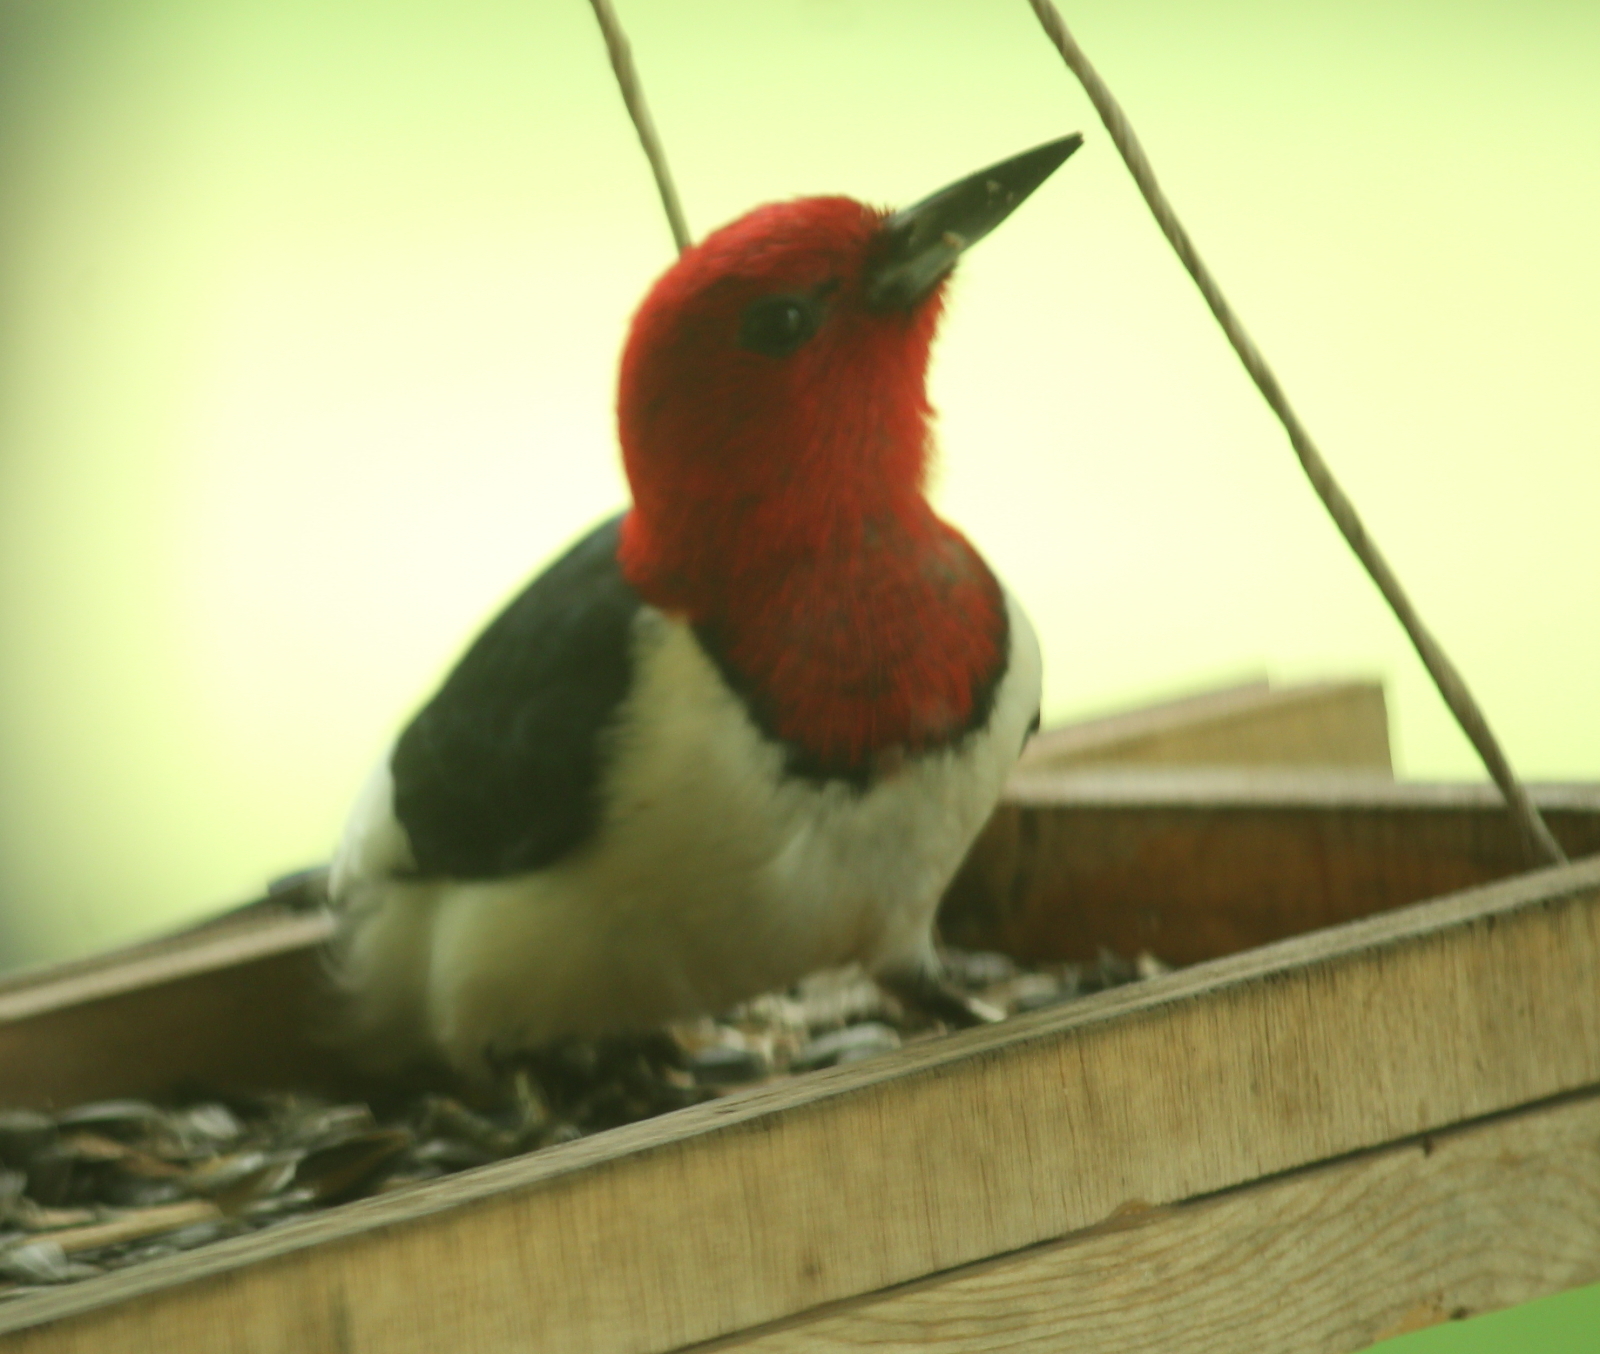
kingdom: Animalia
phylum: Chordata
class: Aves
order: Piciformes
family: Picidae
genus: Melanerpes
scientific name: Melanerpes erythrocephalus
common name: Red-headed woodpecker
